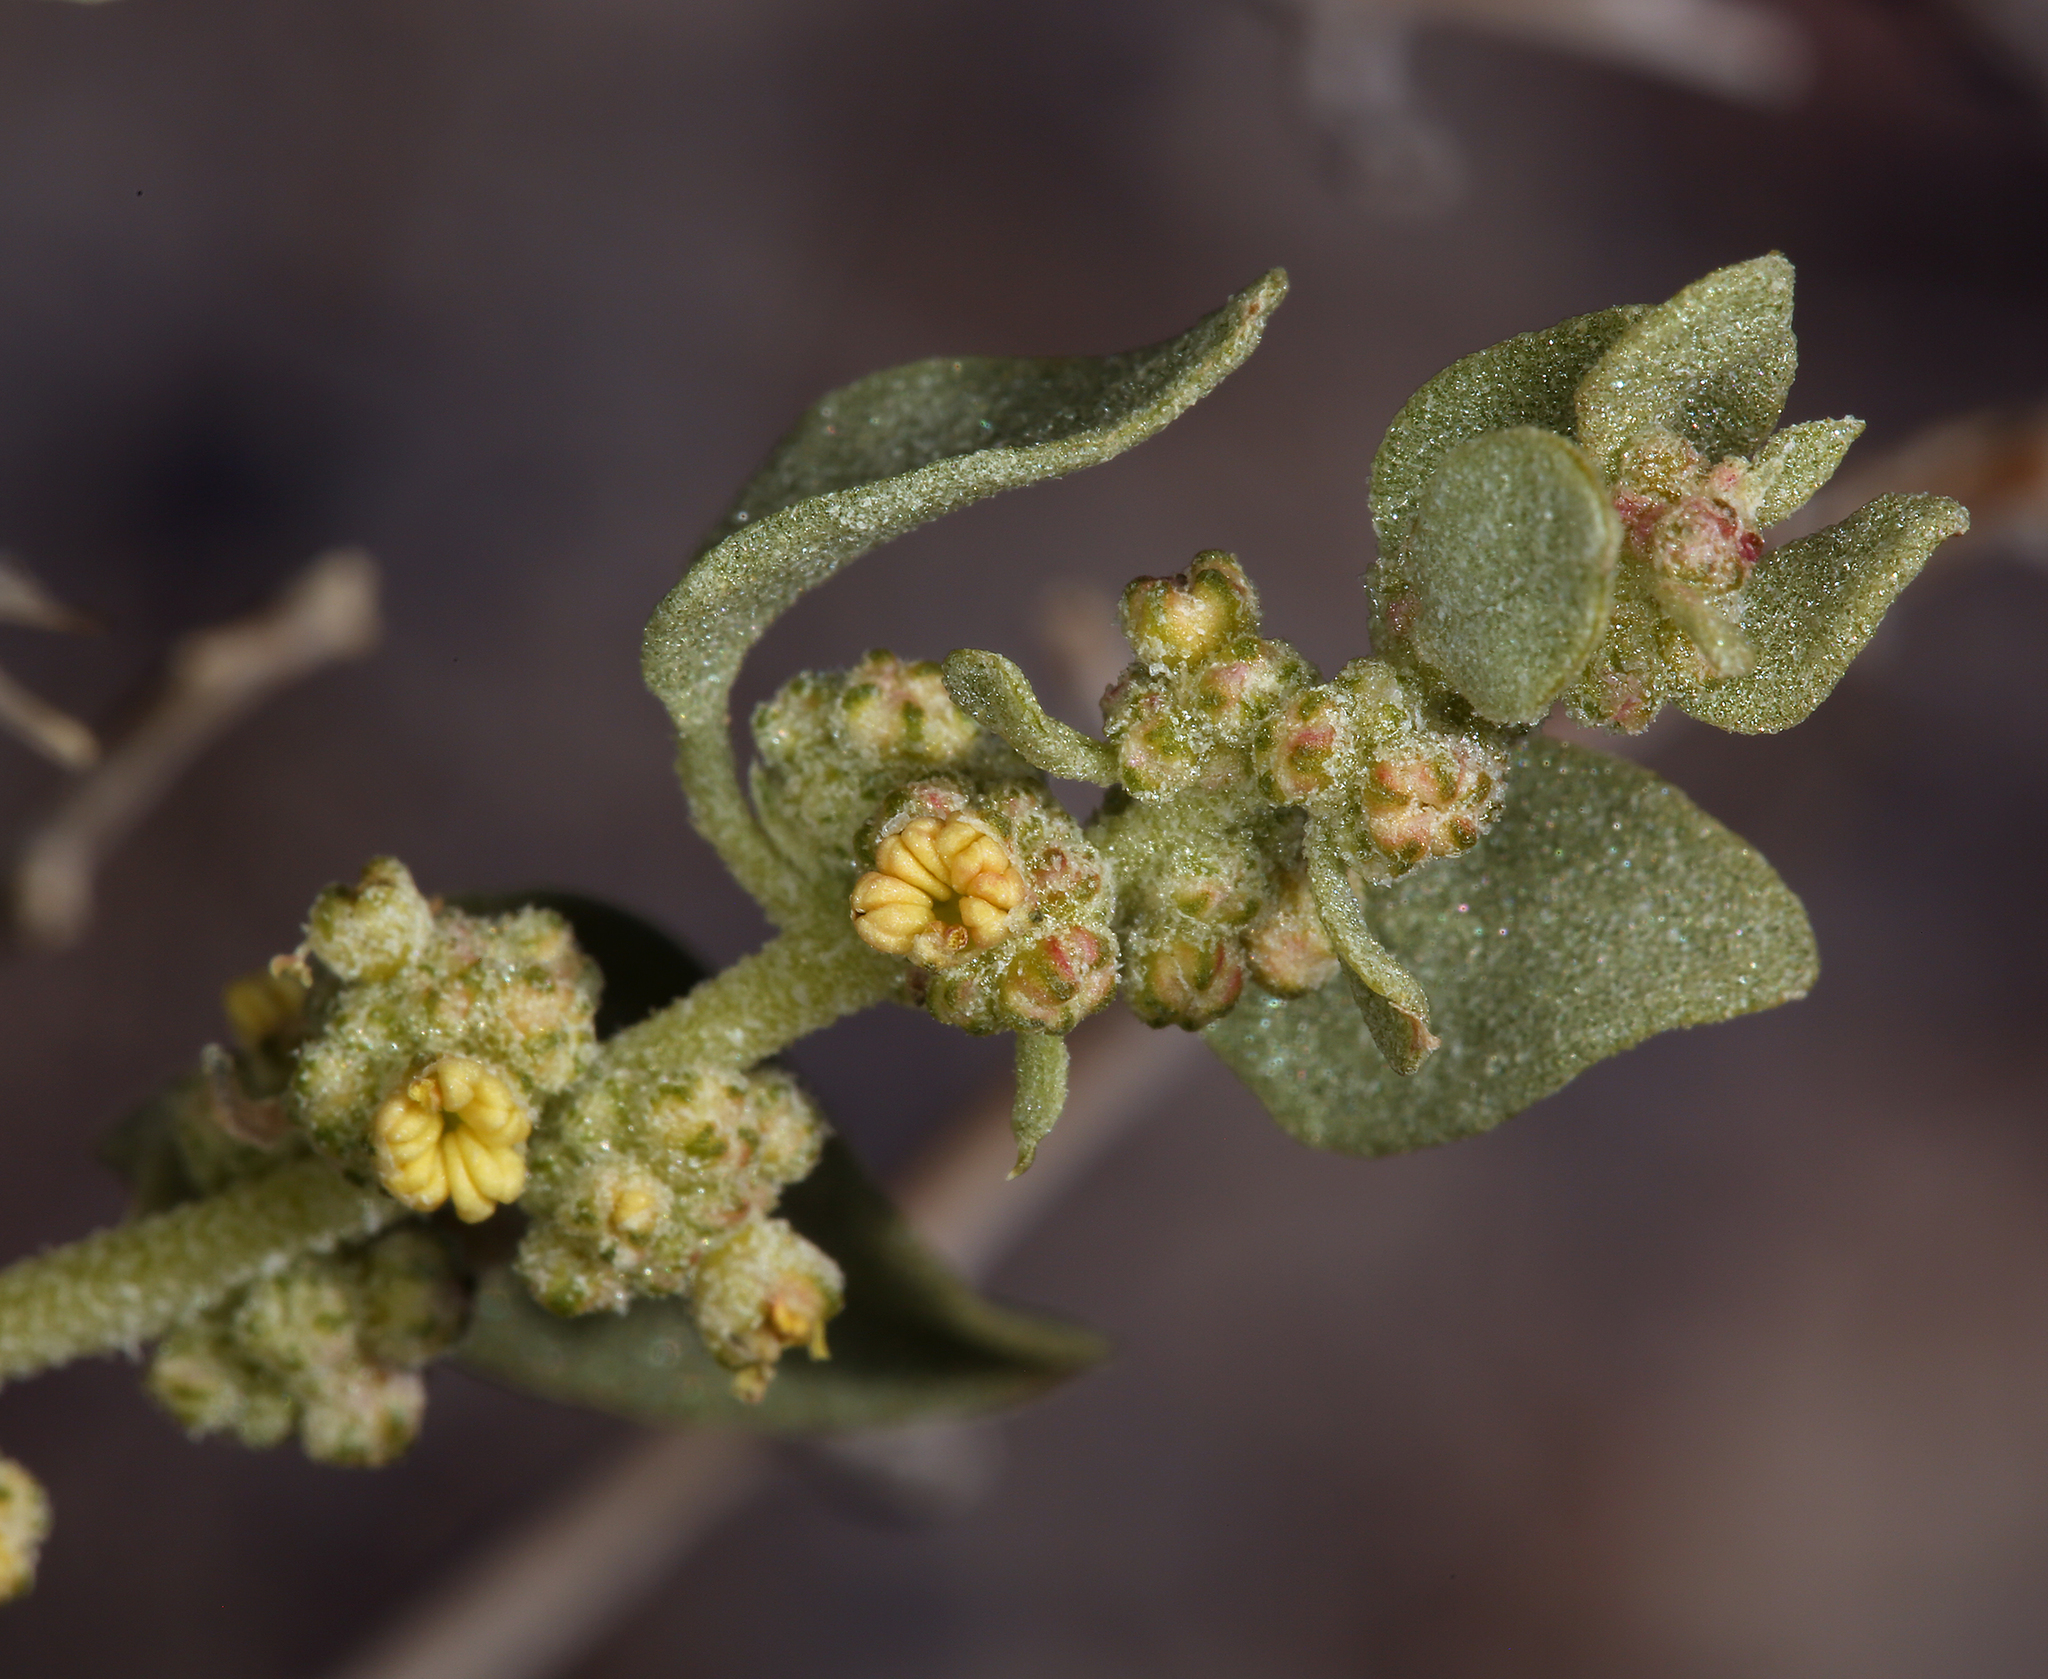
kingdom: Plantae
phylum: Tracheophyta
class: Magnoliopsida
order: Caryophyllales
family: Amaranthaceae
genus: Atriplex
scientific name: Atriplex confertifolia
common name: Shadscale
